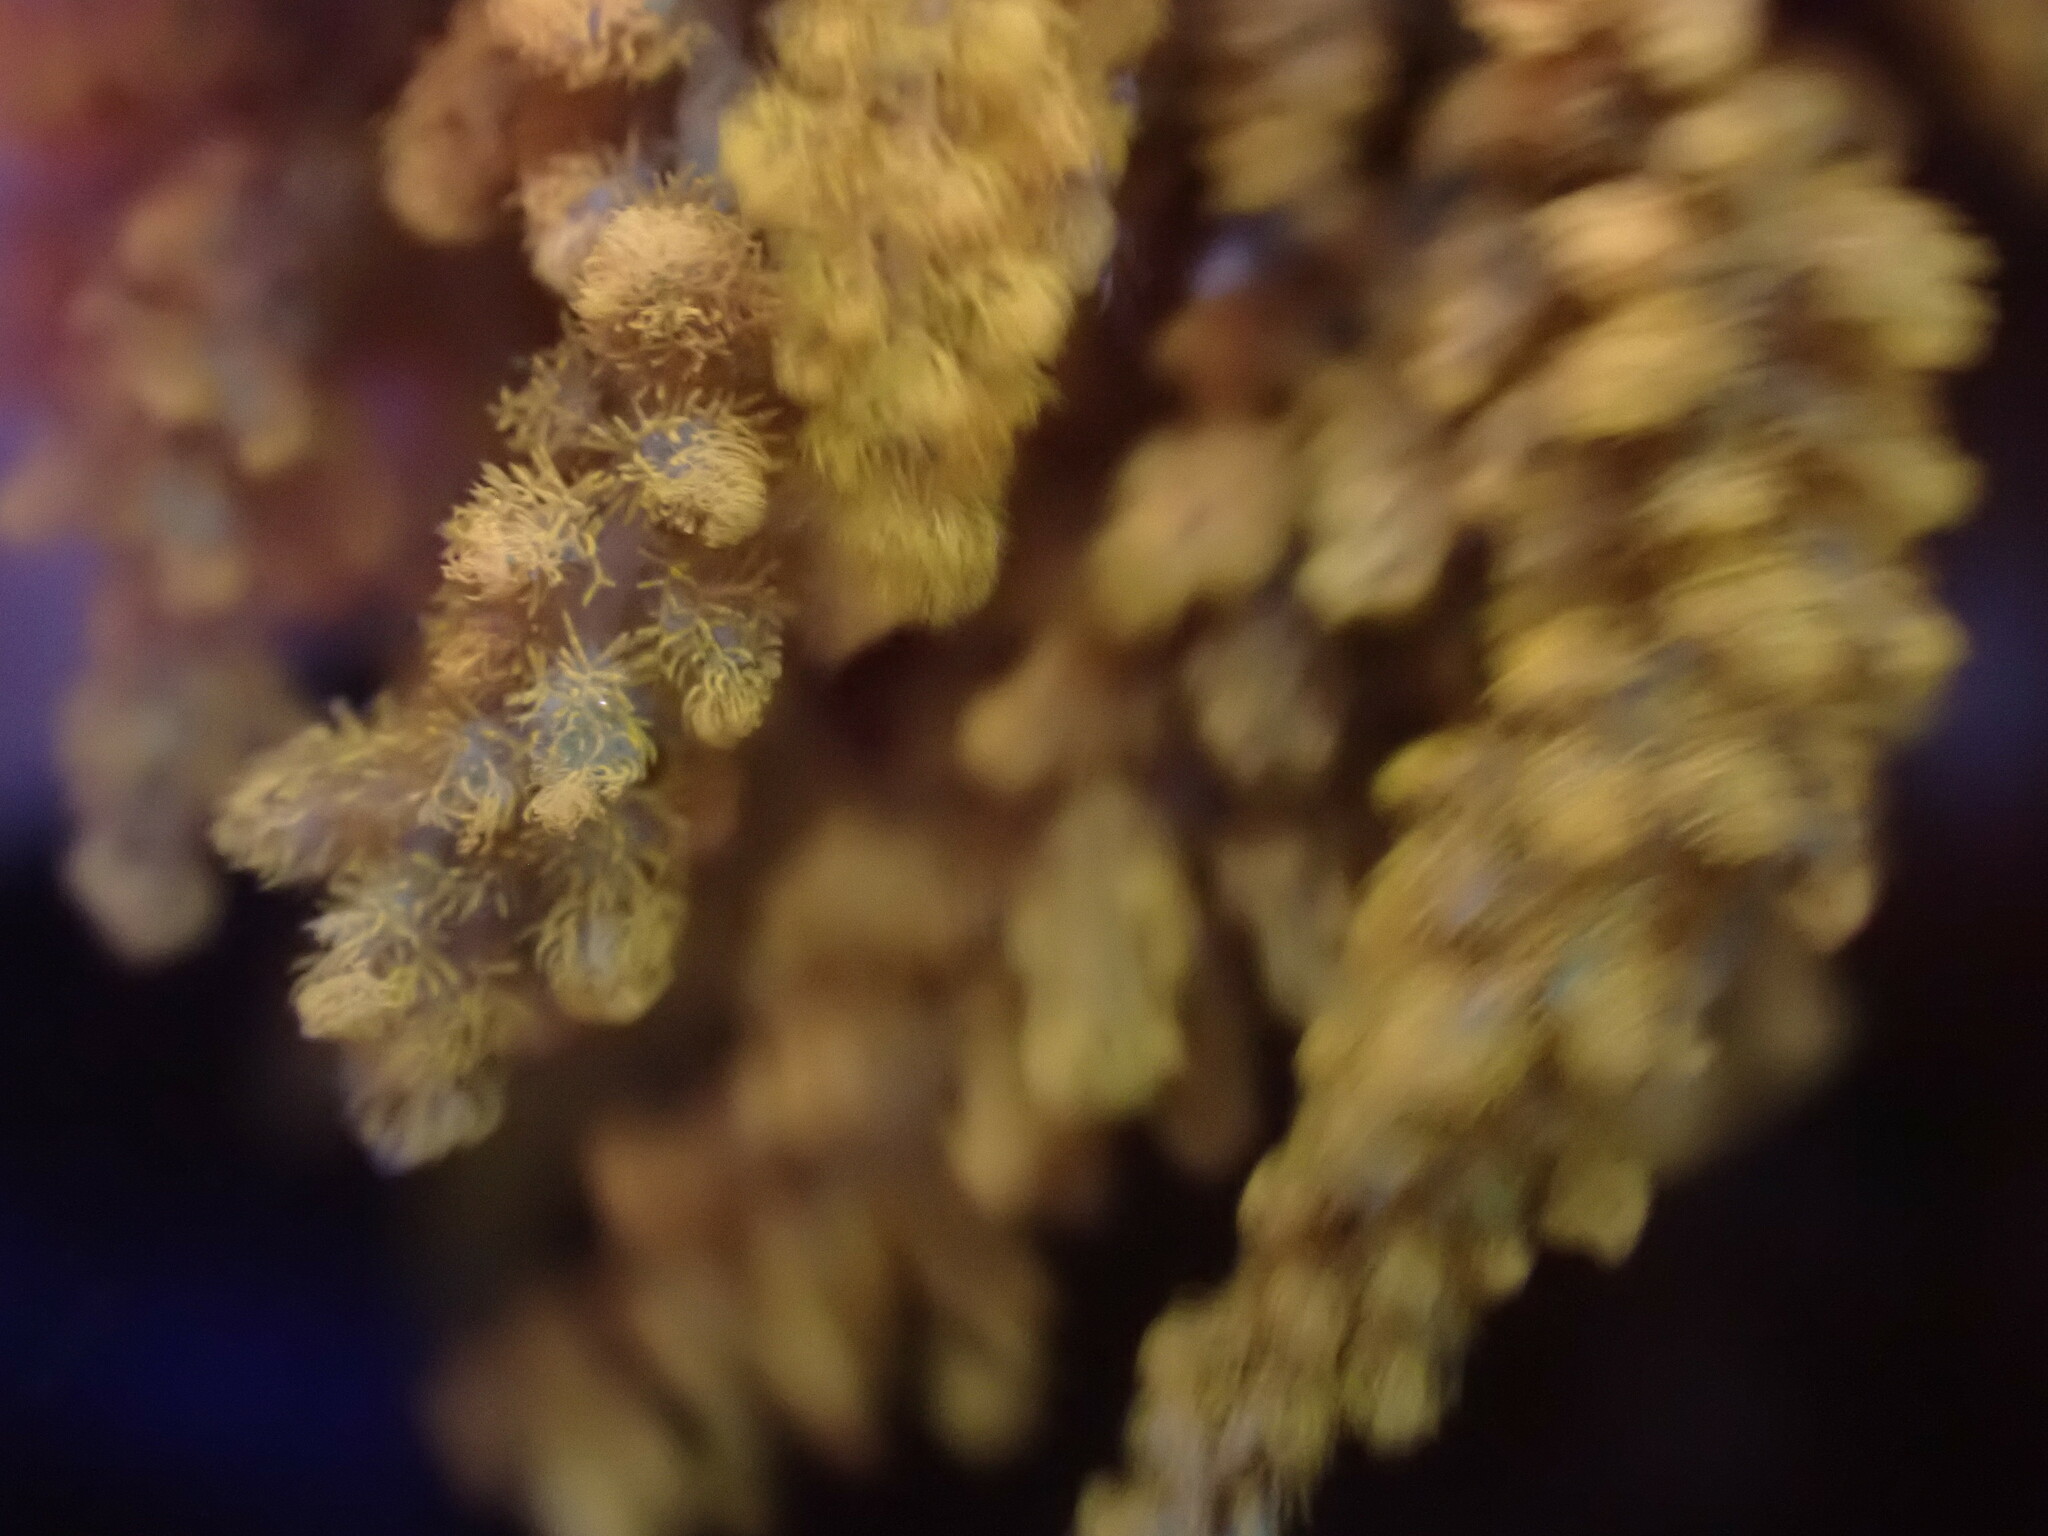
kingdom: Plantae
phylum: Rhodophyta
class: Florideophyceae
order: Ceramiales
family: Callithamniaceae
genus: Callithamnion
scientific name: Callithamnion pikeanum
